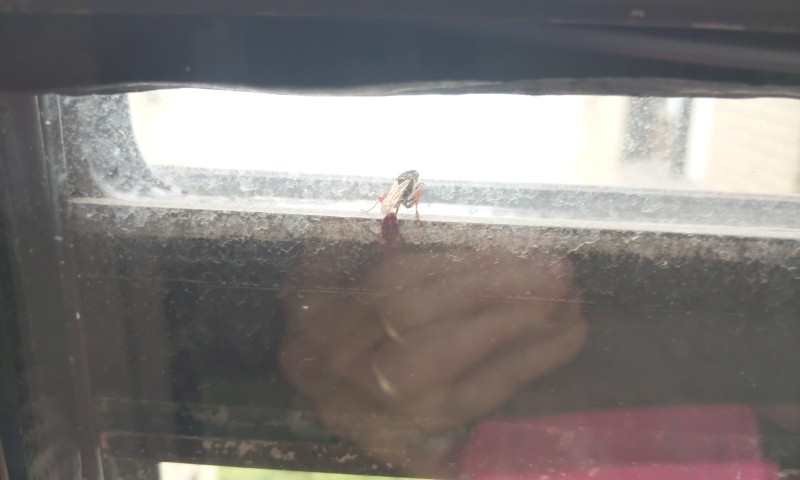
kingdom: Animalia
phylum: Arthropoda
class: Insecta
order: Hymenoptera
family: Sphecidae
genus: Sceliphron
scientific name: Sceliphron curvatum
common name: Pèlopèe
